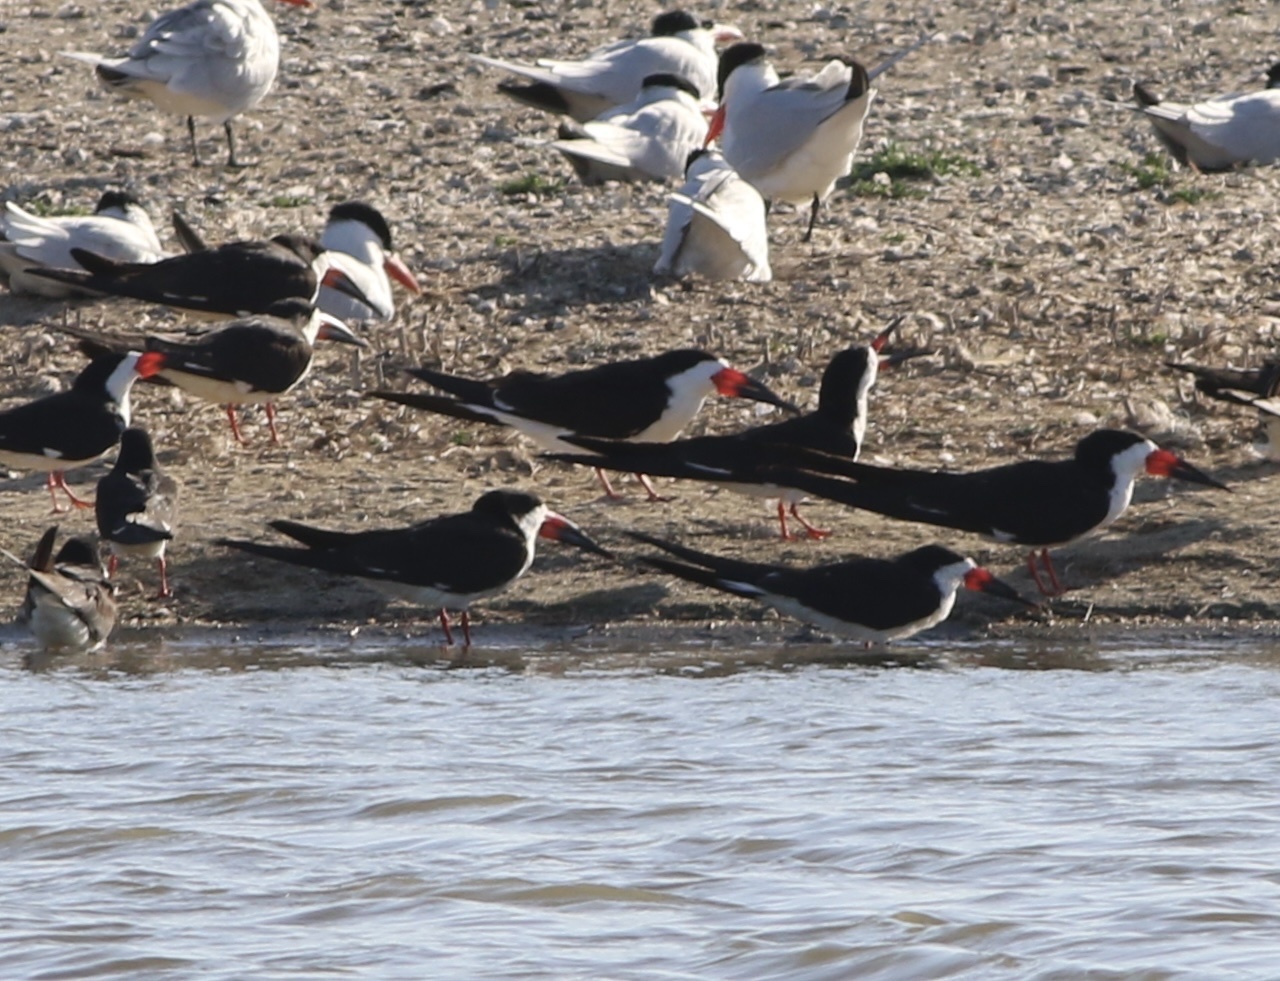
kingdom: Animalia
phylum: Chordata
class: Aves
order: Charadriiformes
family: Laridae
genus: Rynchops
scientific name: Rynchops niger
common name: Black skimmer
